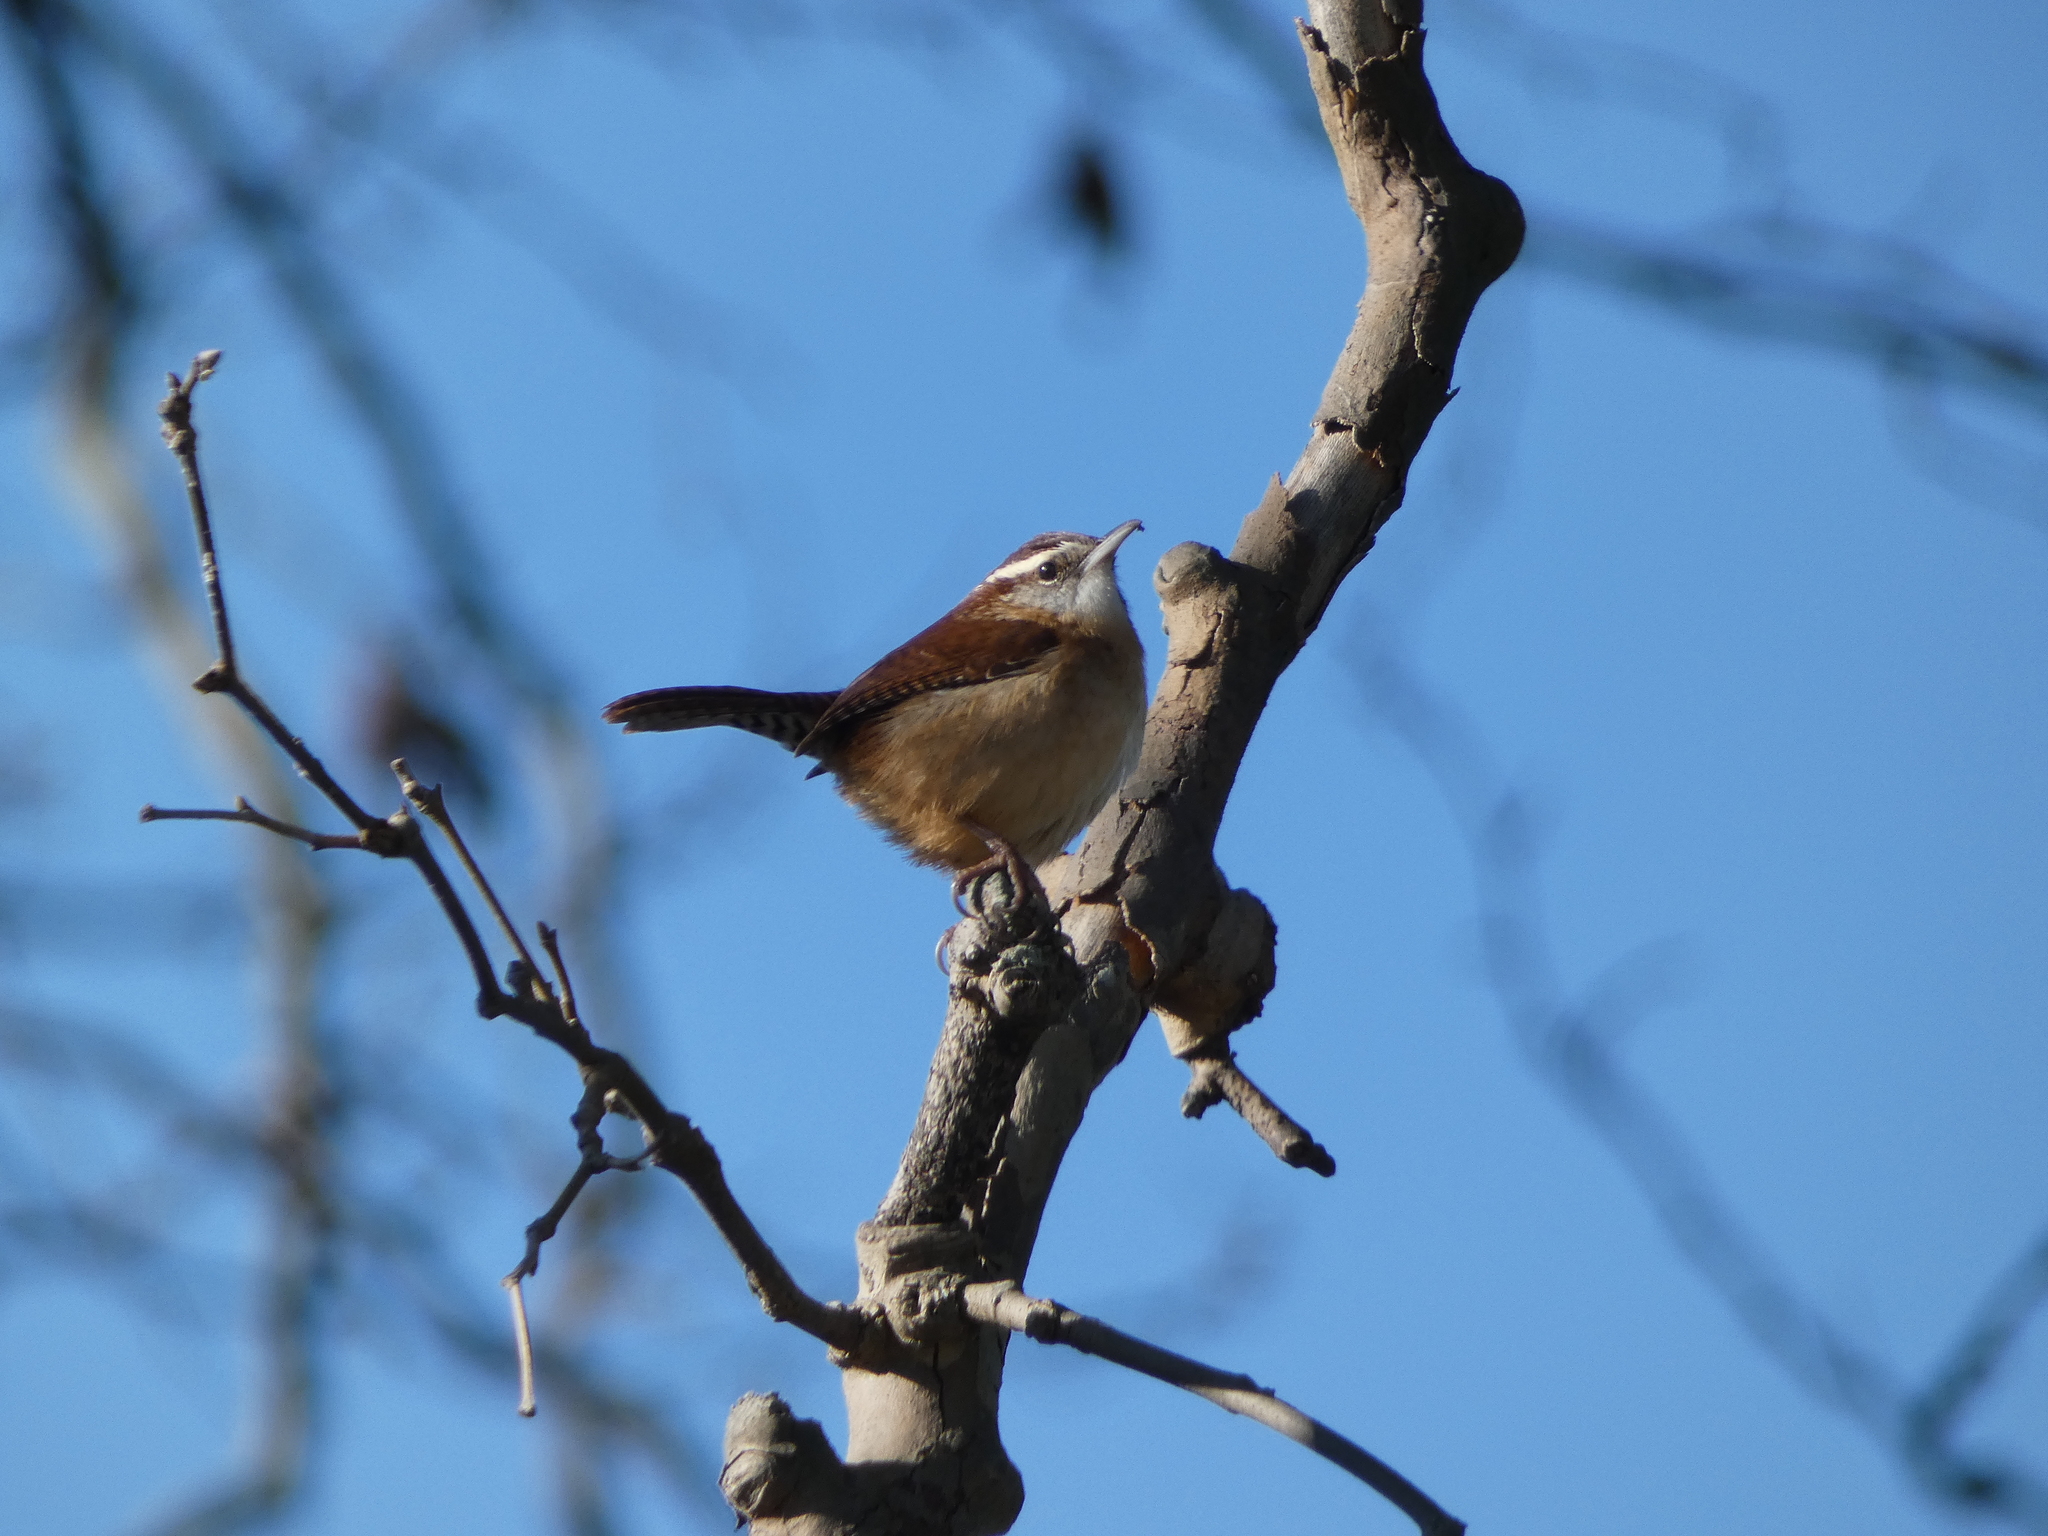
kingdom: Animalia
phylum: Chordata
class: Aves
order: Passeriformes
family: Troglodytidae
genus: Thryothorus
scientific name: Thryothorus ludovicianus
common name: Carolina wren
